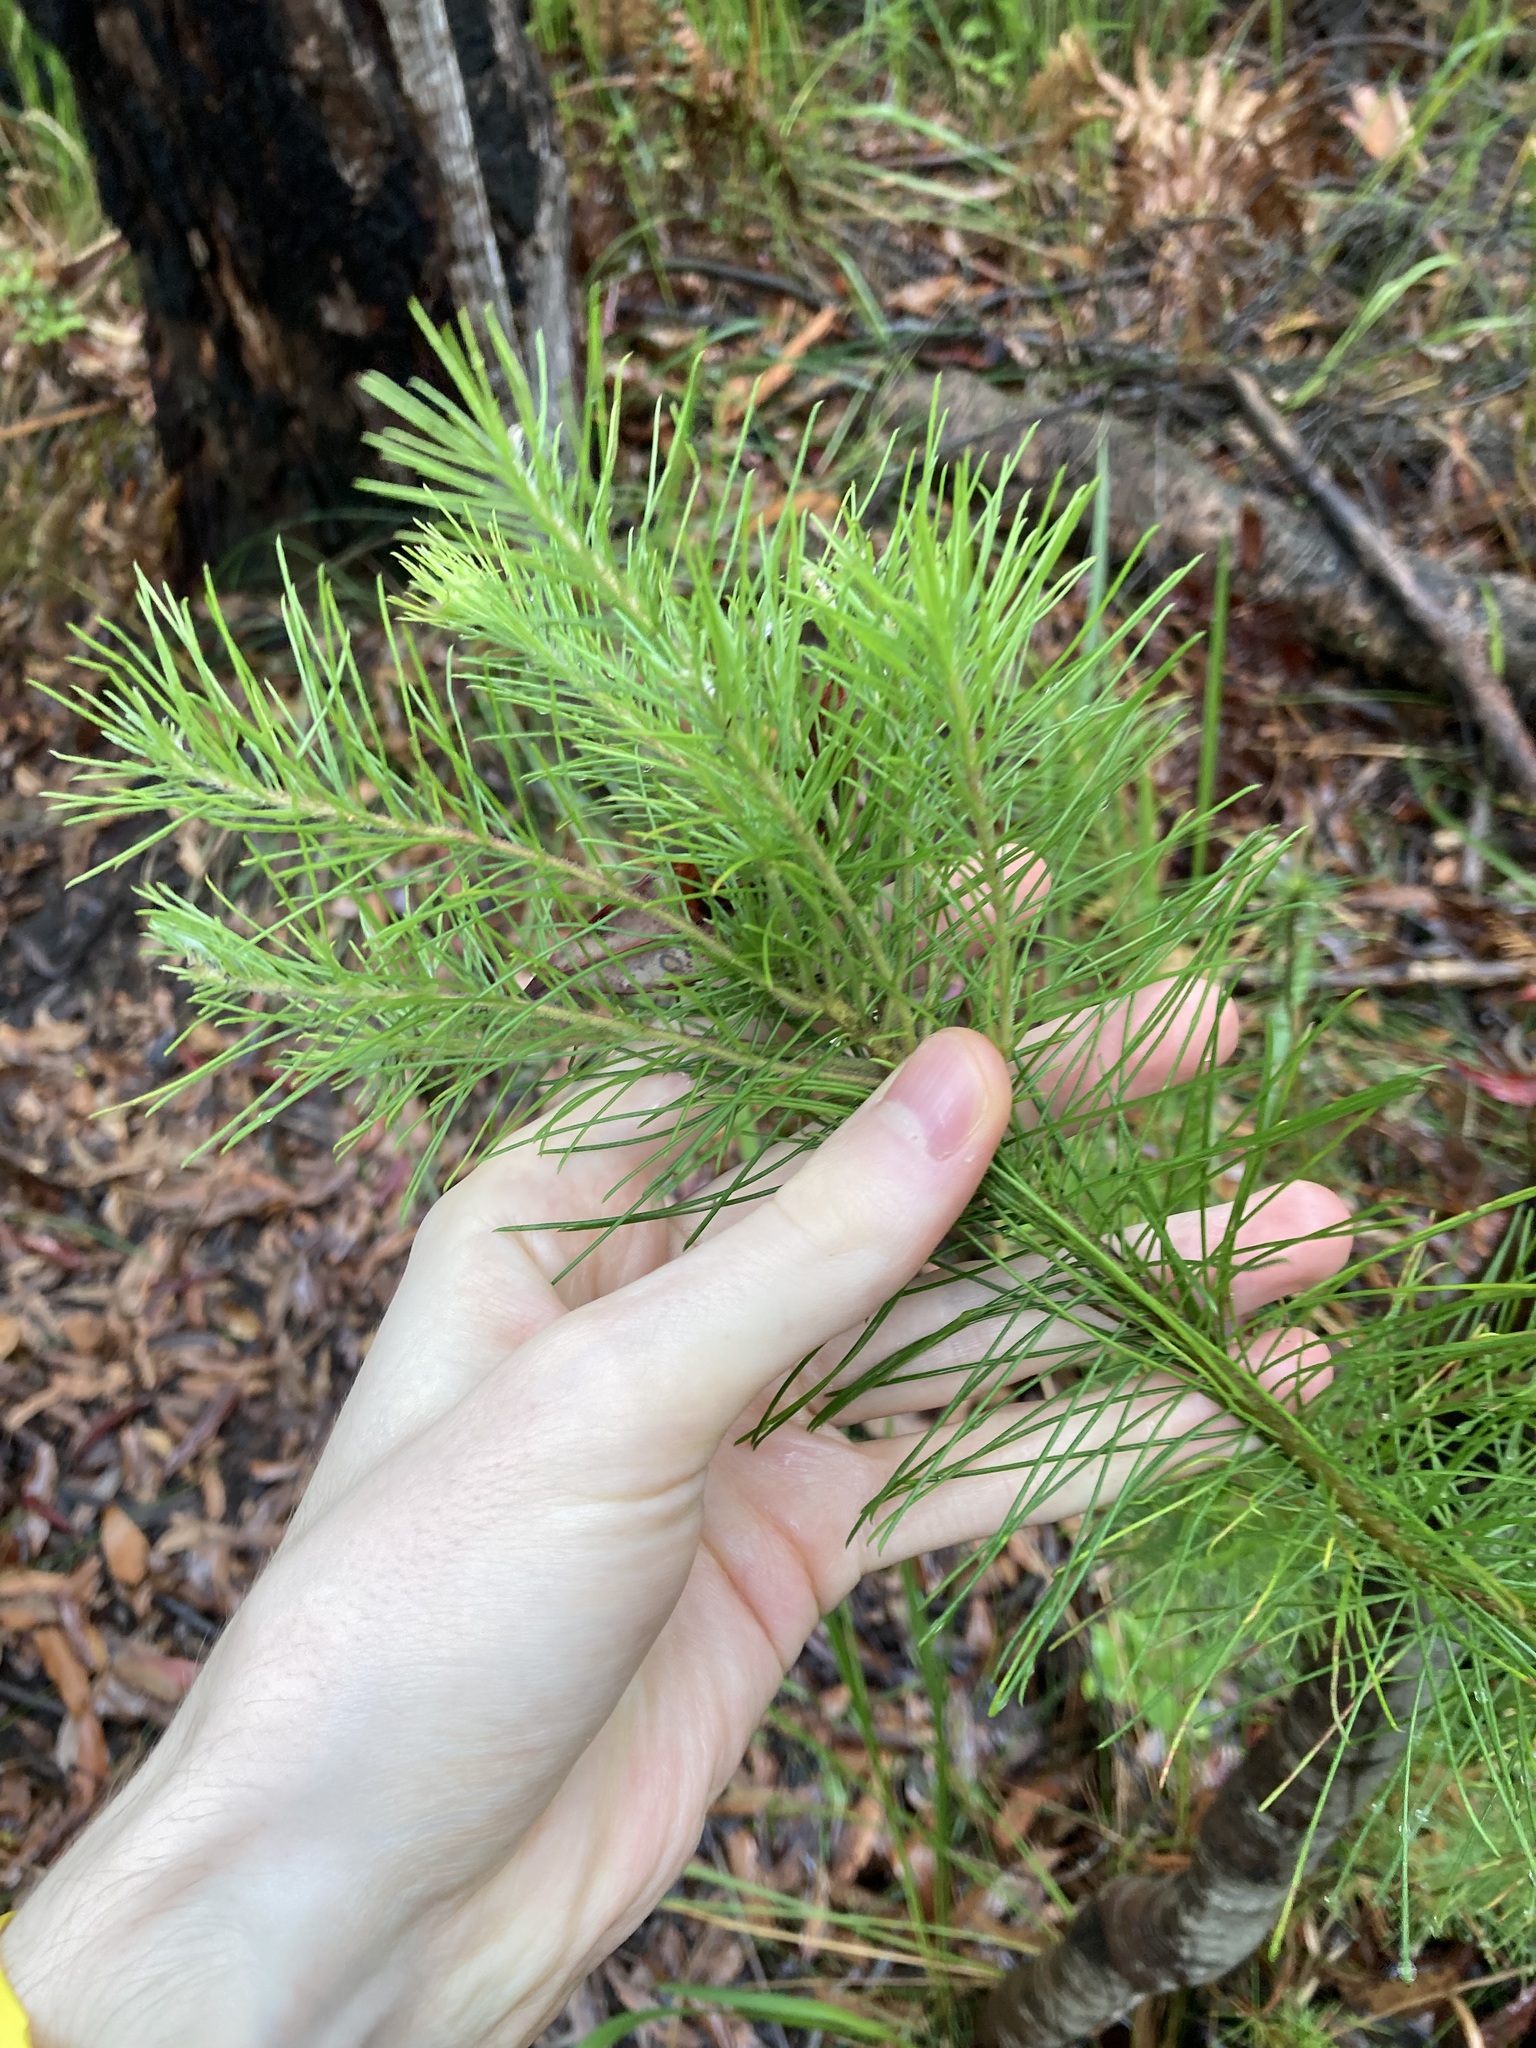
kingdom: Plantae
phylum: Tracheophyta
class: Magnoliopsida
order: Proteales
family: Proteaceae
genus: Persoonia
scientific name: Persoonia pinifolia
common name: Pine-leaf geebung
